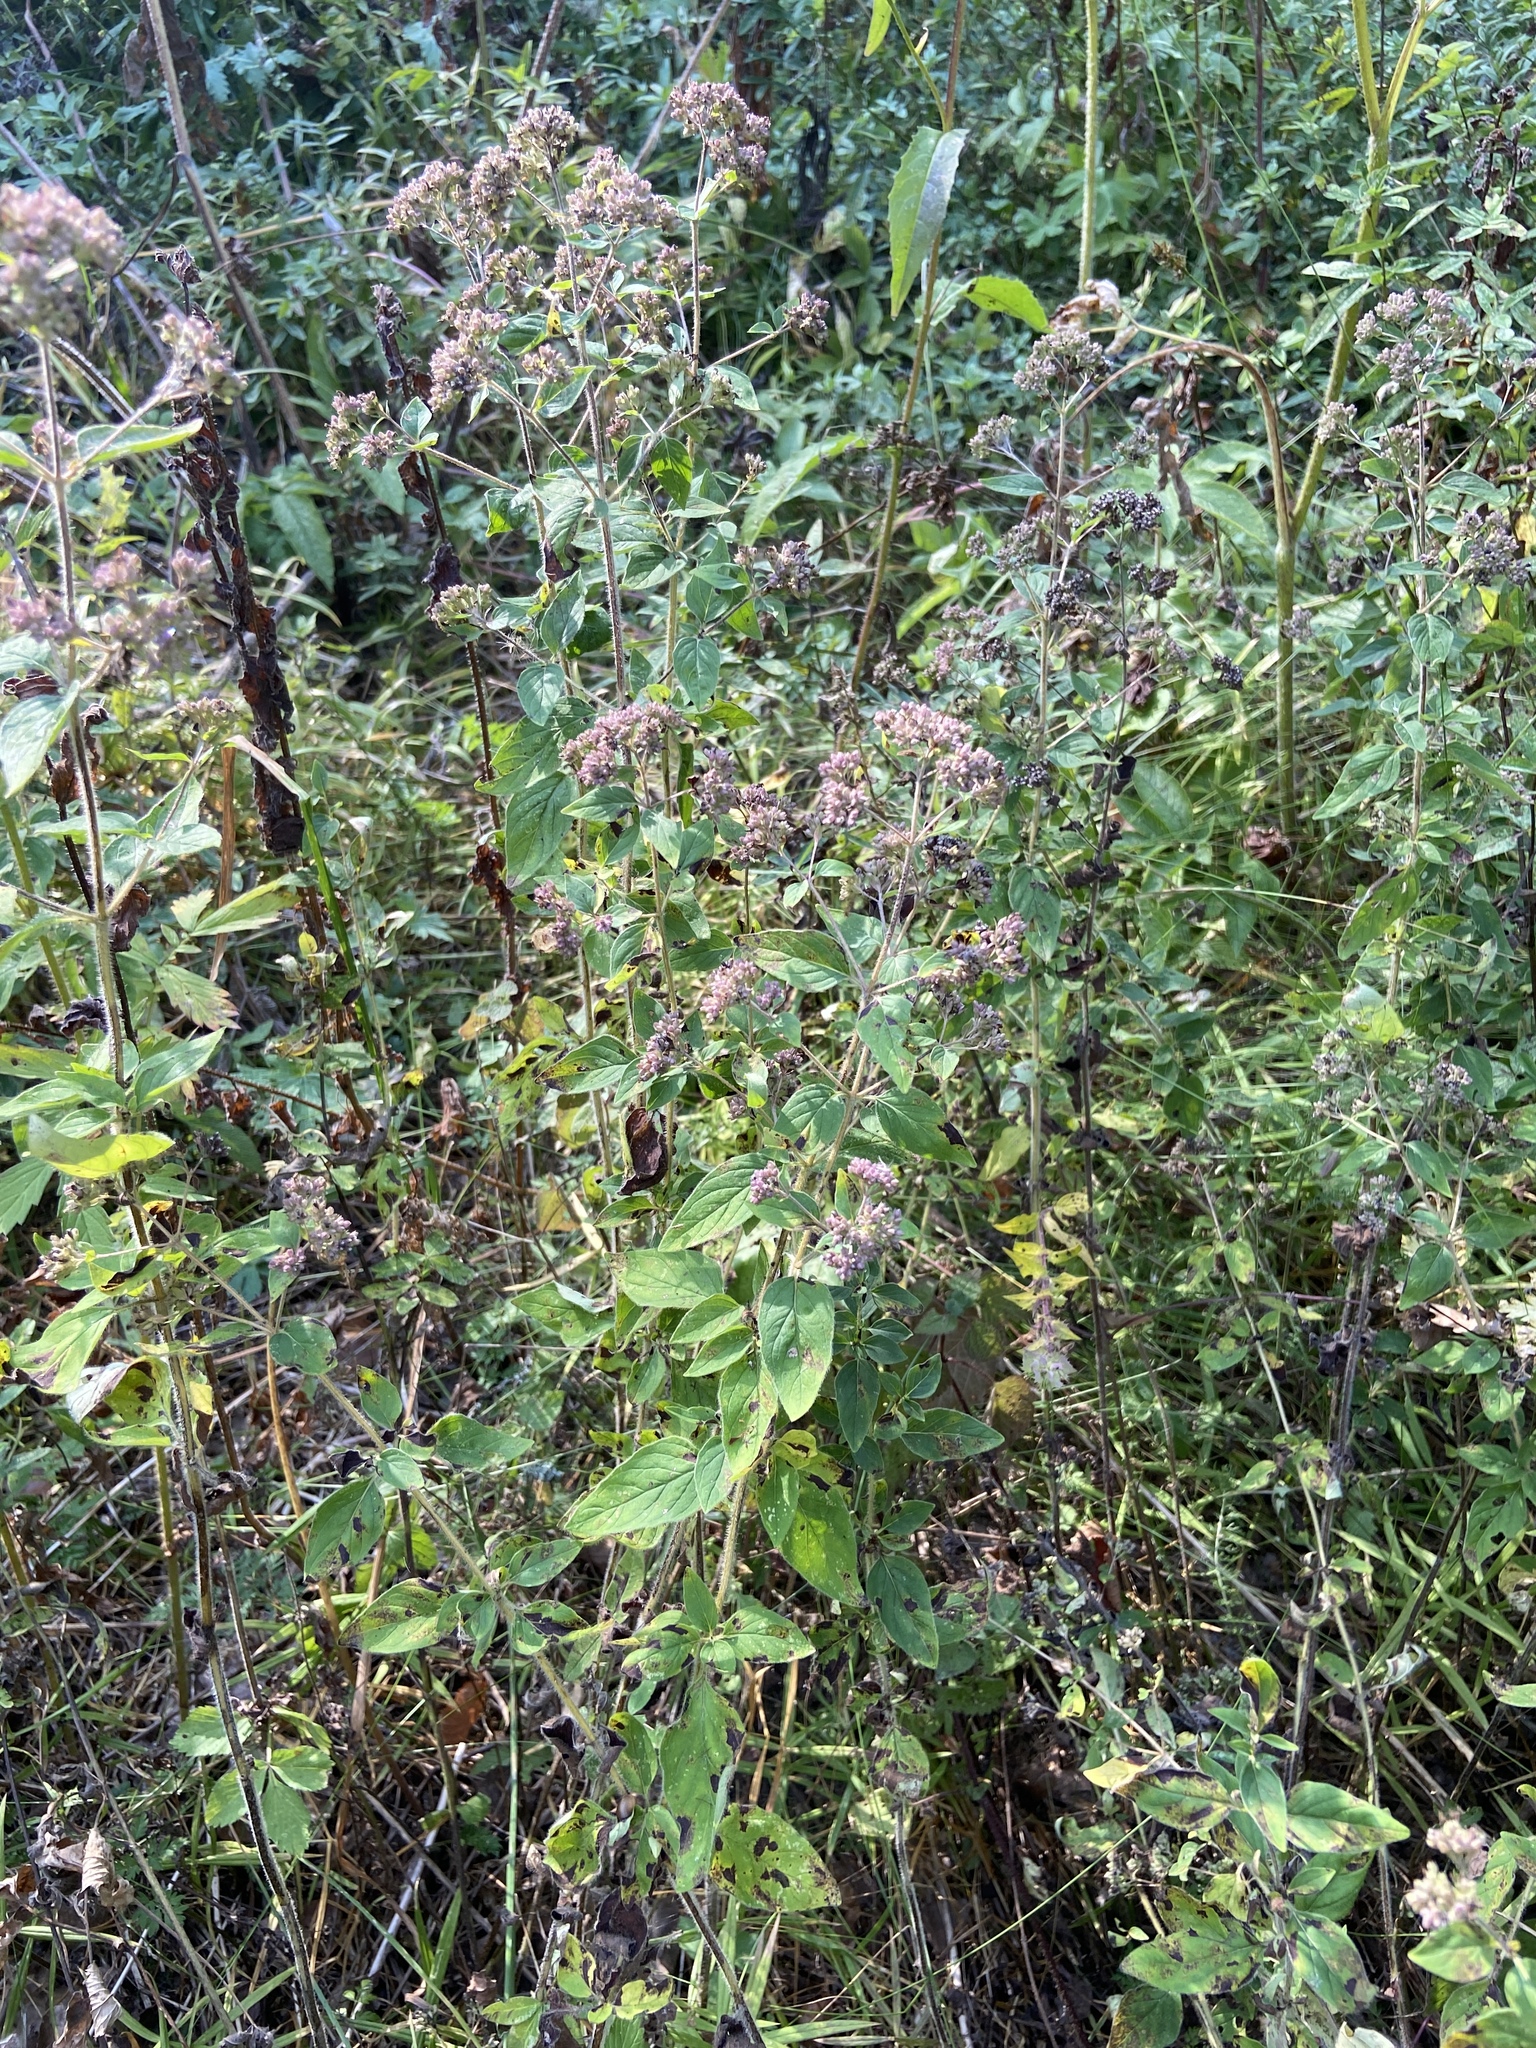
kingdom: Plantae
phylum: Tracheophyta
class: Magnoliopsida
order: Lamiales
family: Lamiaceae
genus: Origanum
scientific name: Origanum vulgare
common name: Wild marjoram
